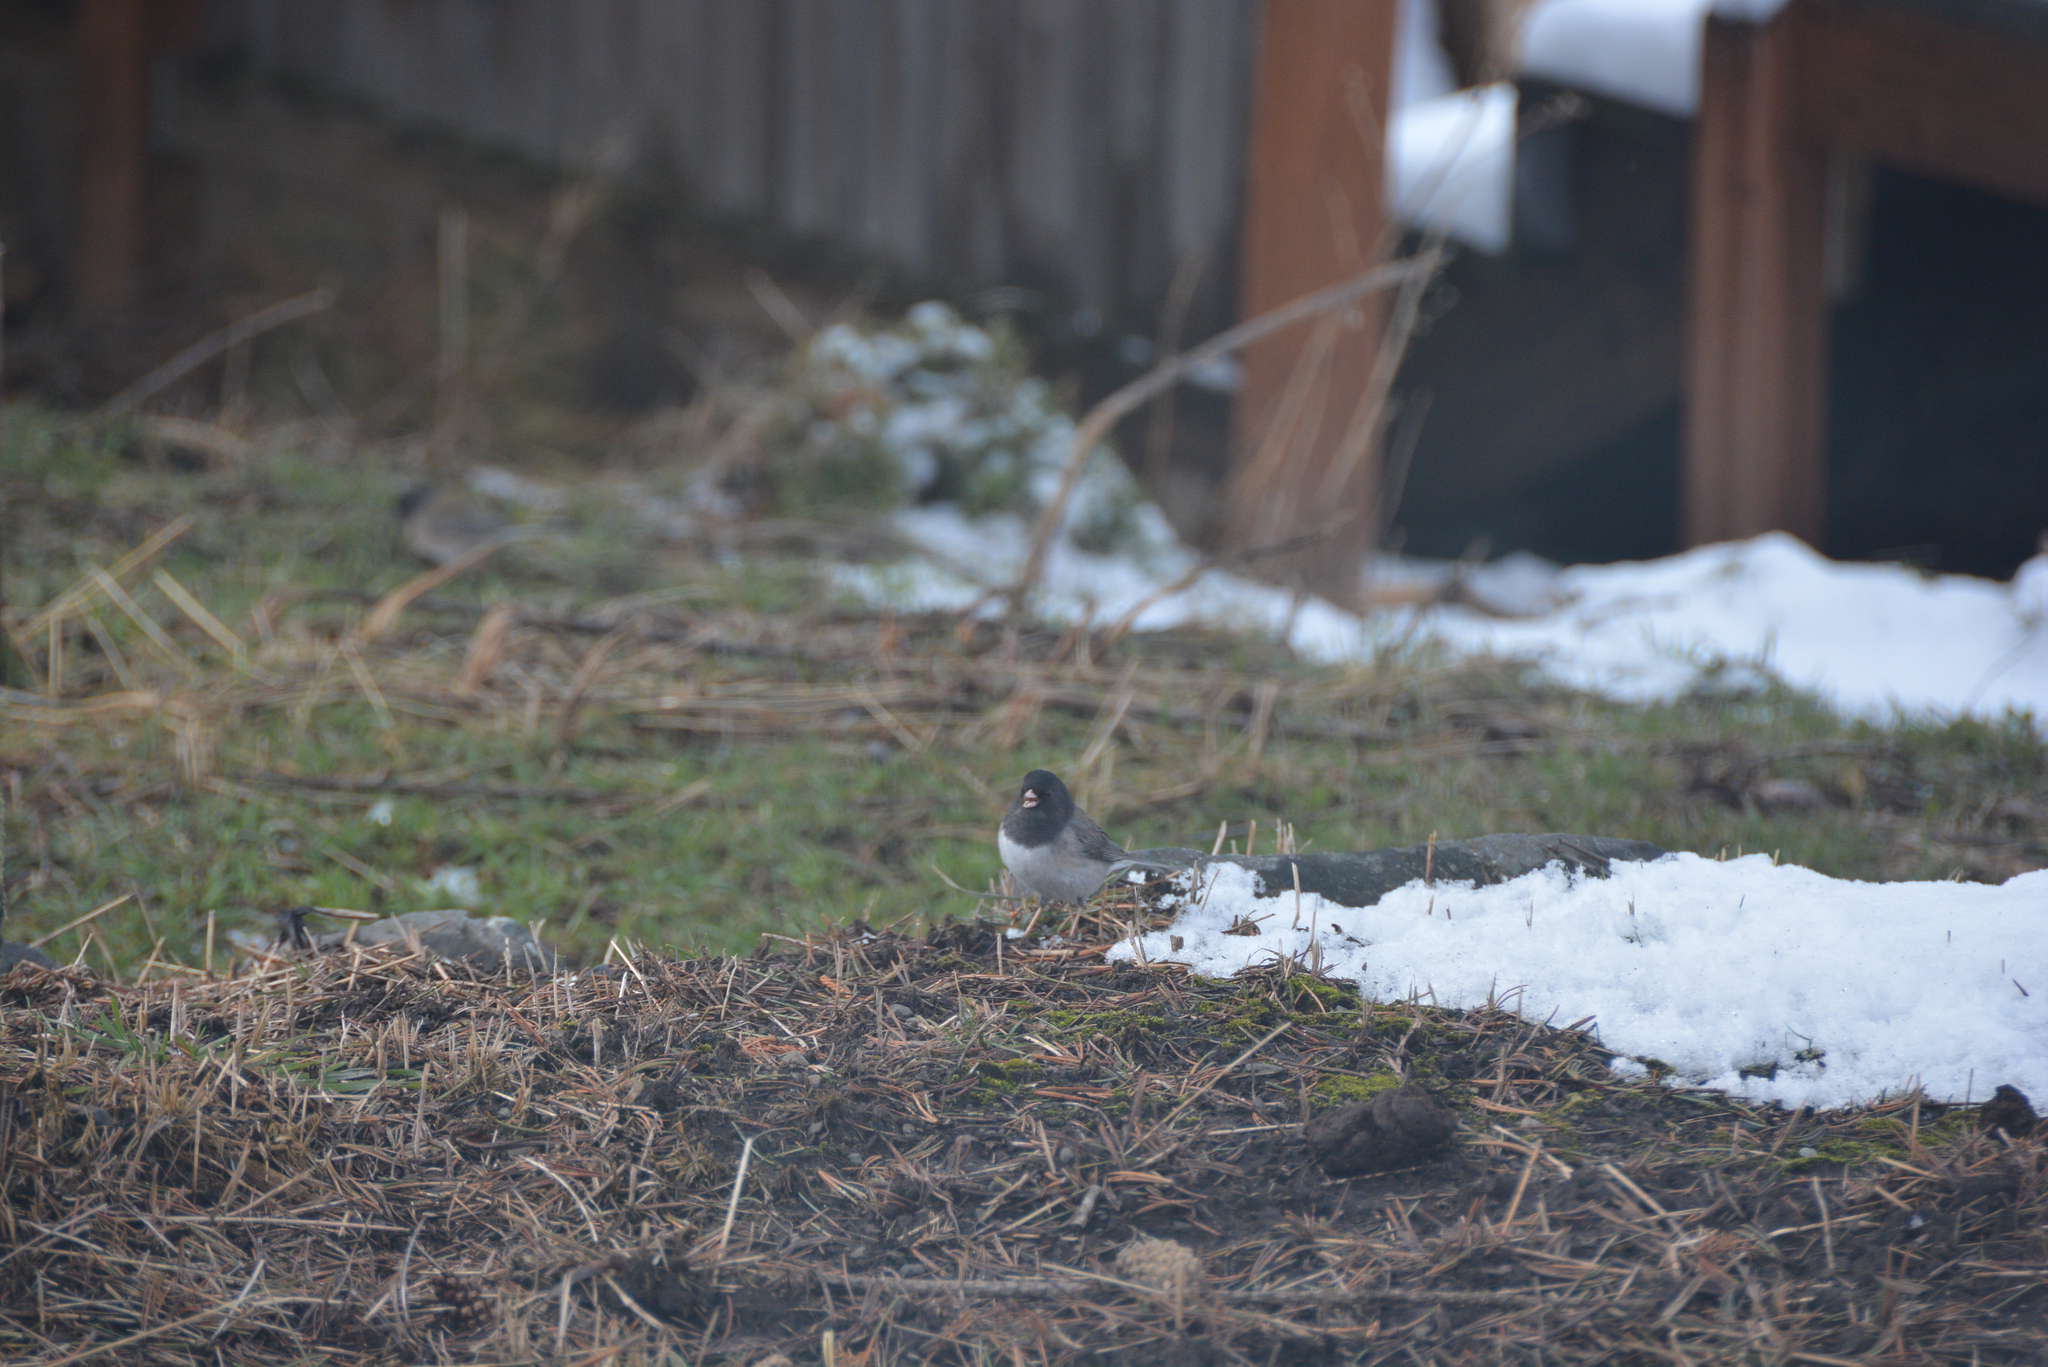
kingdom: Animalia
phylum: Chordata
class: Aves
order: Passeriformes
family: Passerellidae
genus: Junco
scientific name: Junco hyemalis
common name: Dark-eyed junco
